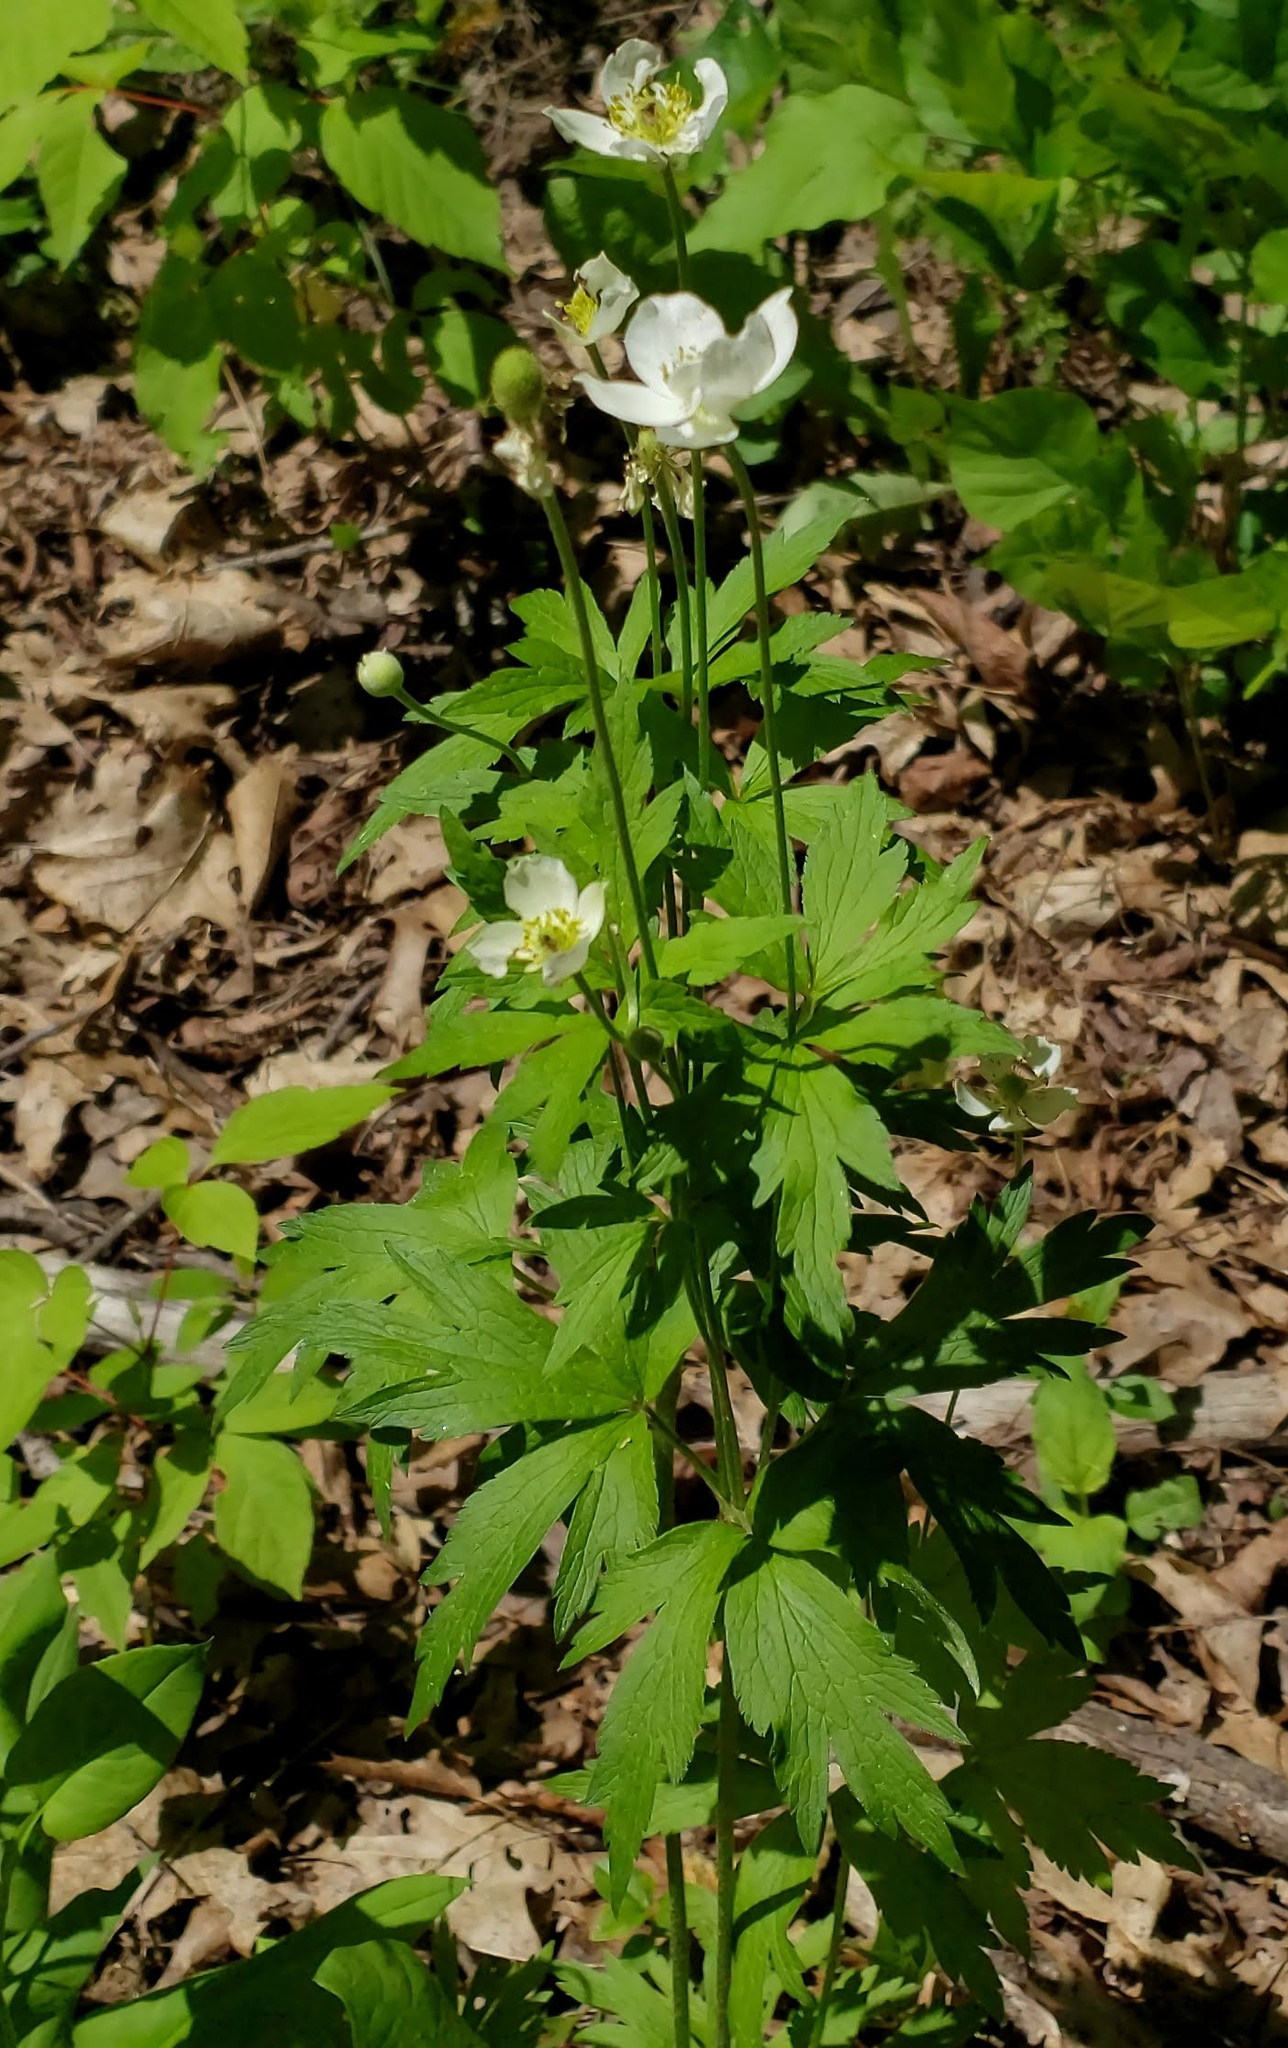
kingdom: Plantae
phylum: Tracheophyta
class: Magnoliopsida
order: Ranunculales
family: Ranunculaceae
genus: Anemone
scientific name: Anemone virginiana
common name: Tall anemone
